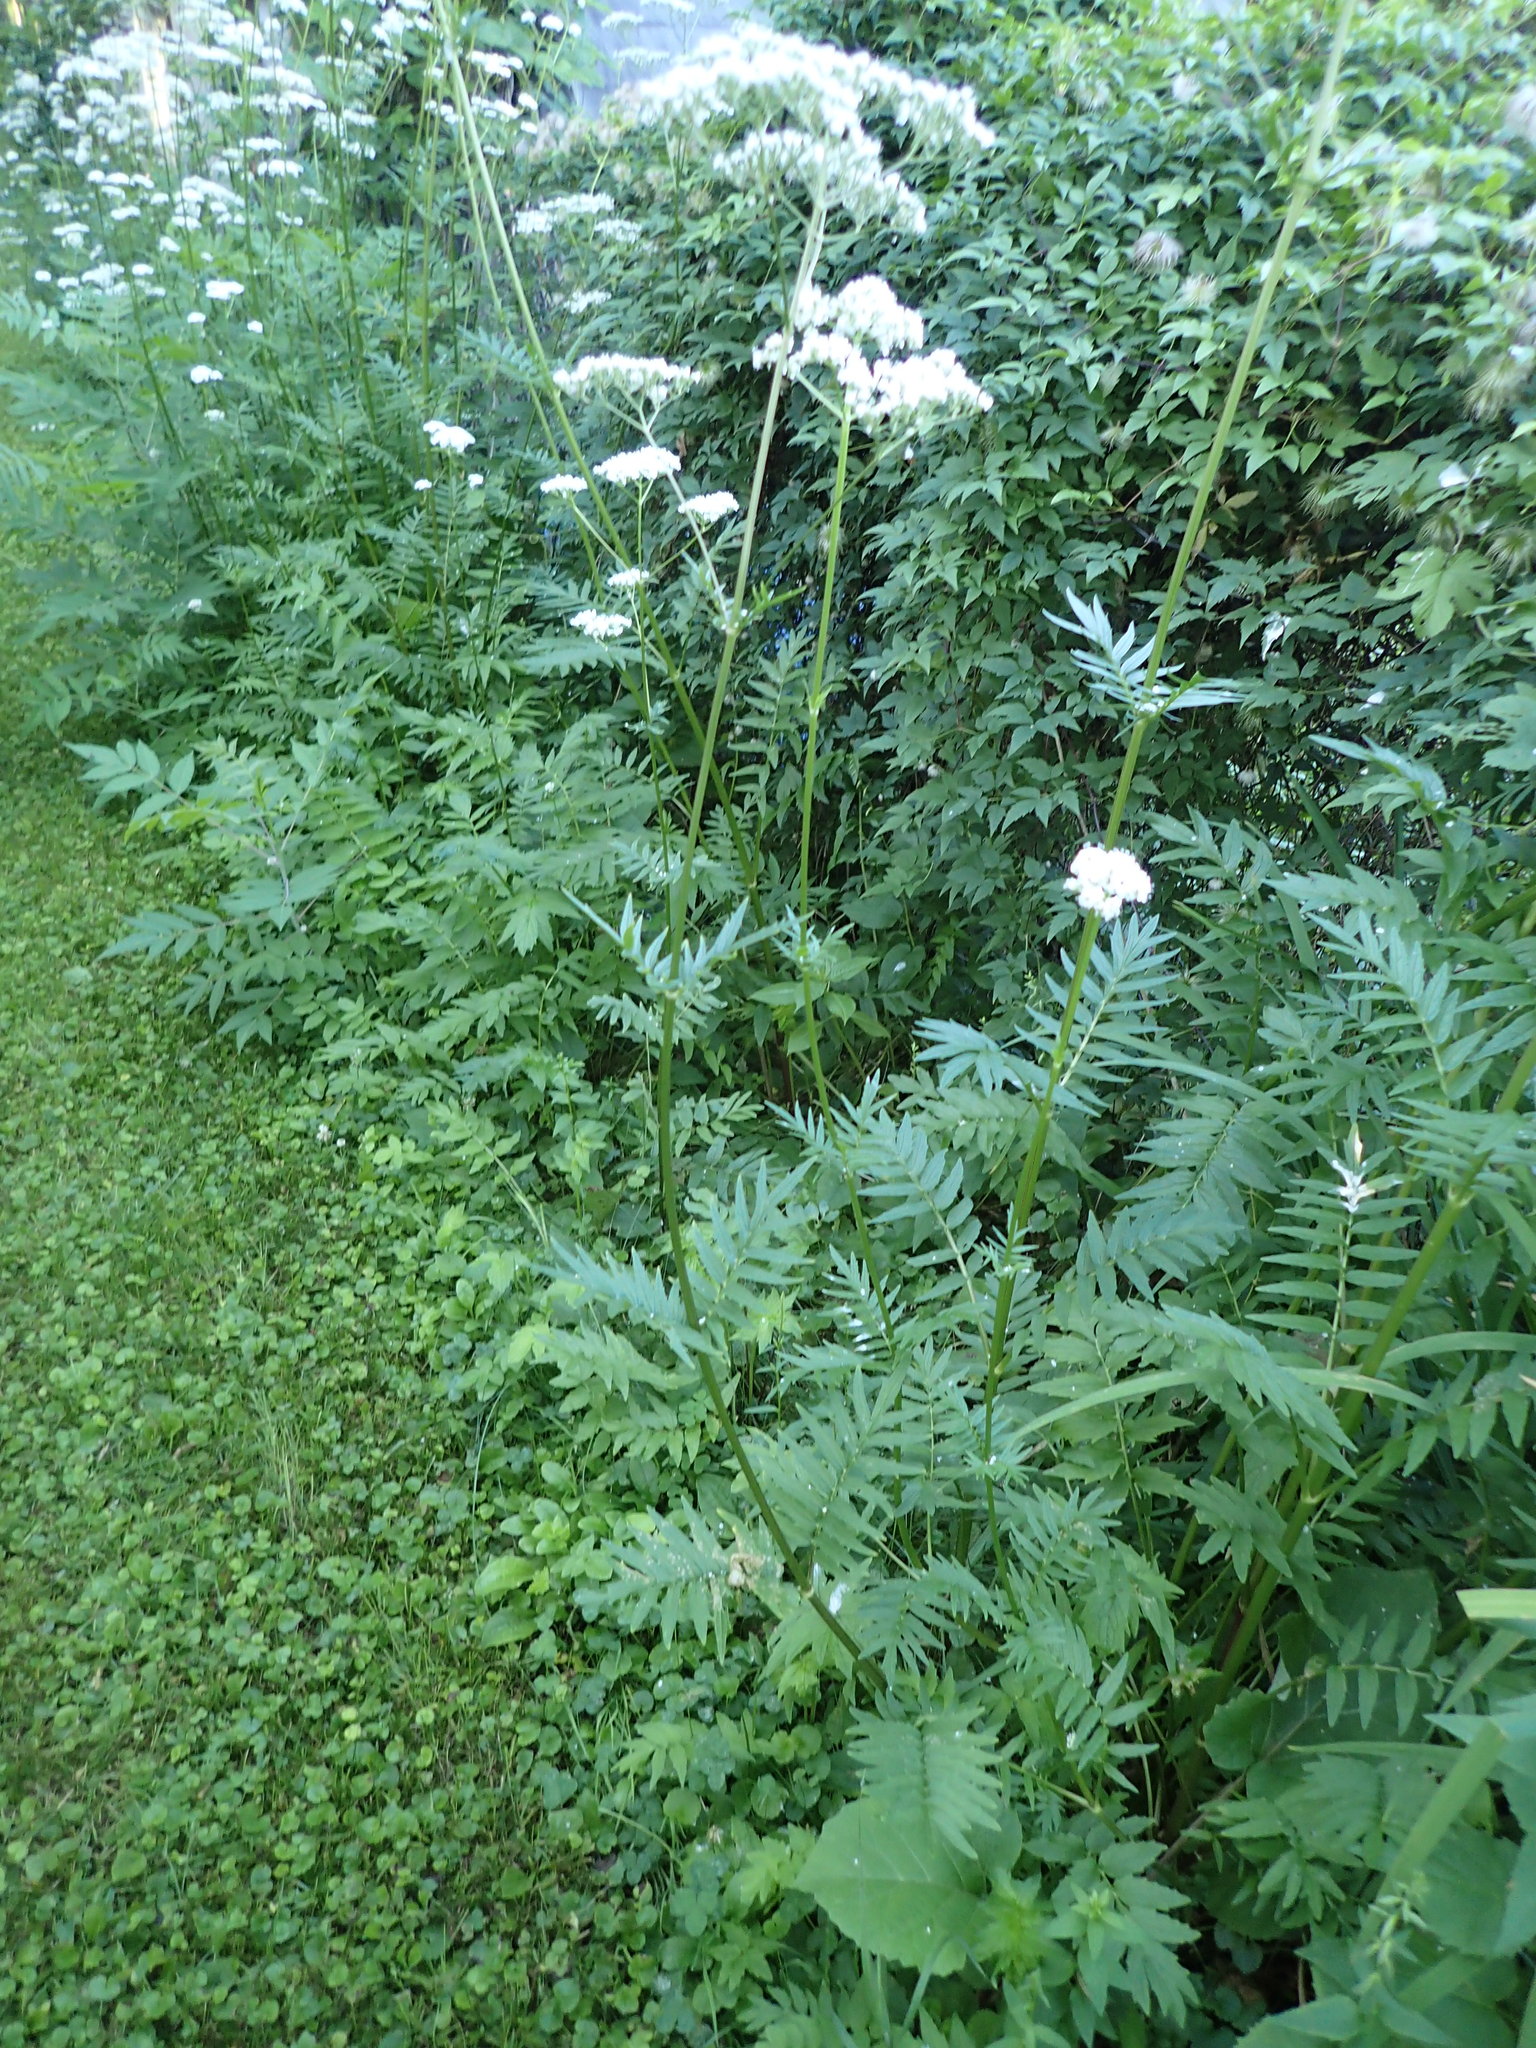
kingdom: Plantae
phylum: Tracheophyta
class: Magnoliopsida
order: Dipsacales
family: Caprifoliaceae
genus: Valeriana
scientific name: Valeriana officinalis
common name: Common valerian
